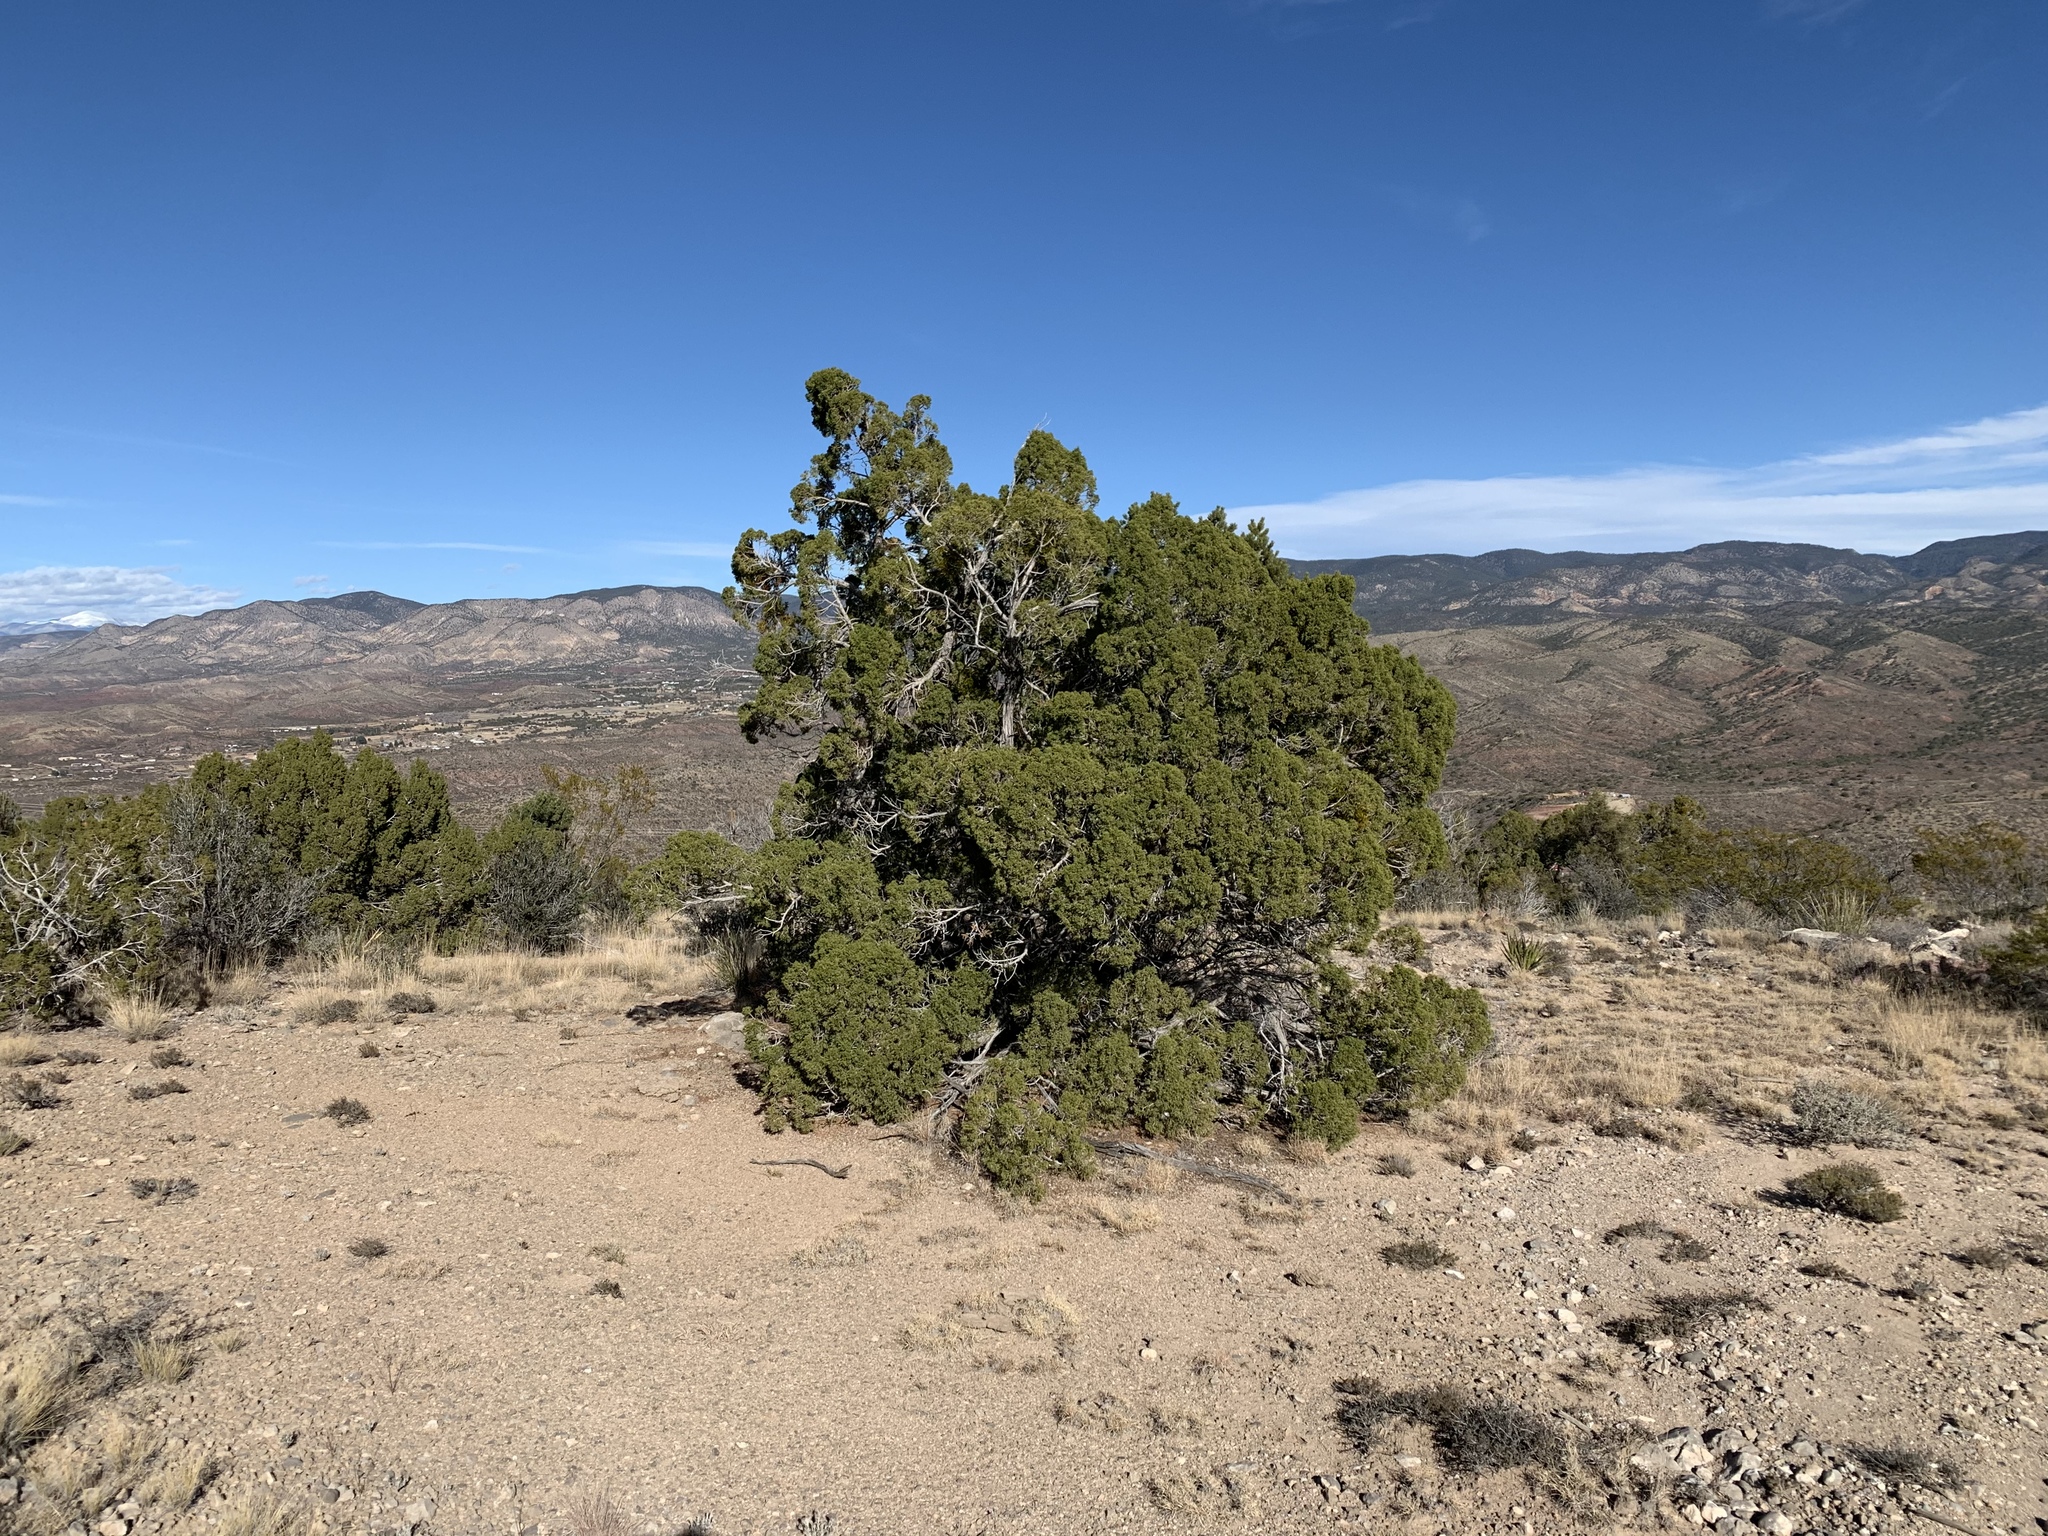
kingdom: Plantae
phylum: Tracheophyta
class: Pinopsida
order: Pinales
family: Cupressaceae
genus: Juniperus
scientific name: Juniperus monosperma
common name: One-seed juniper
